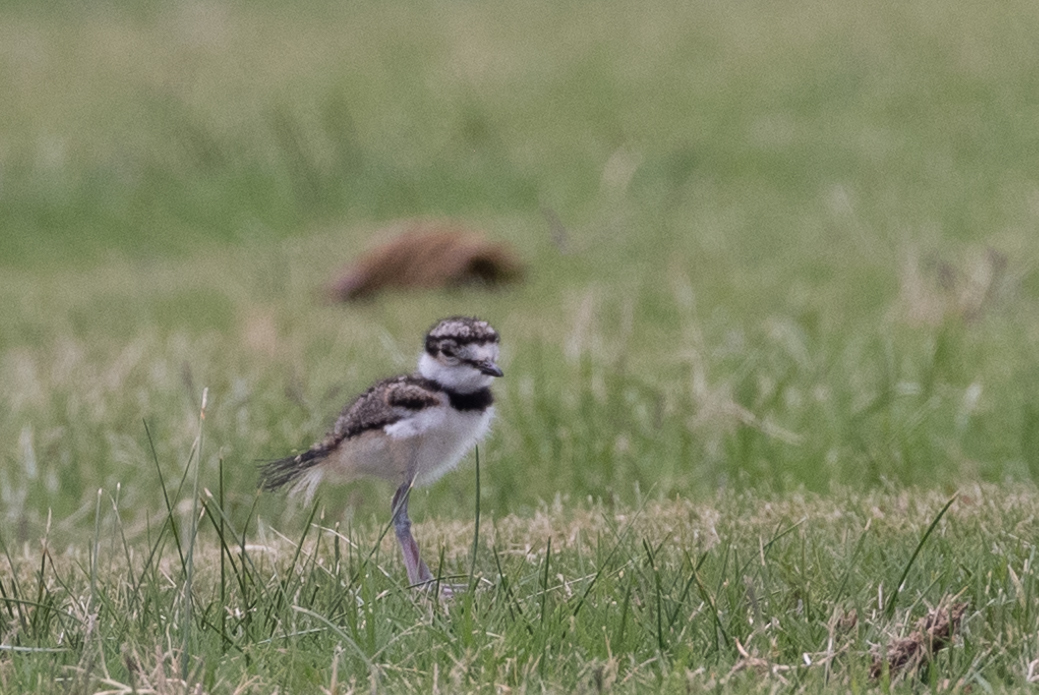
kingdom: Animalia
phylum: Chordata
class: Aves
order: Charadriiformes
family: Charadriidae
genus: Charadrius
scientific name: Charadrius vociferus
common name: Killdeer
